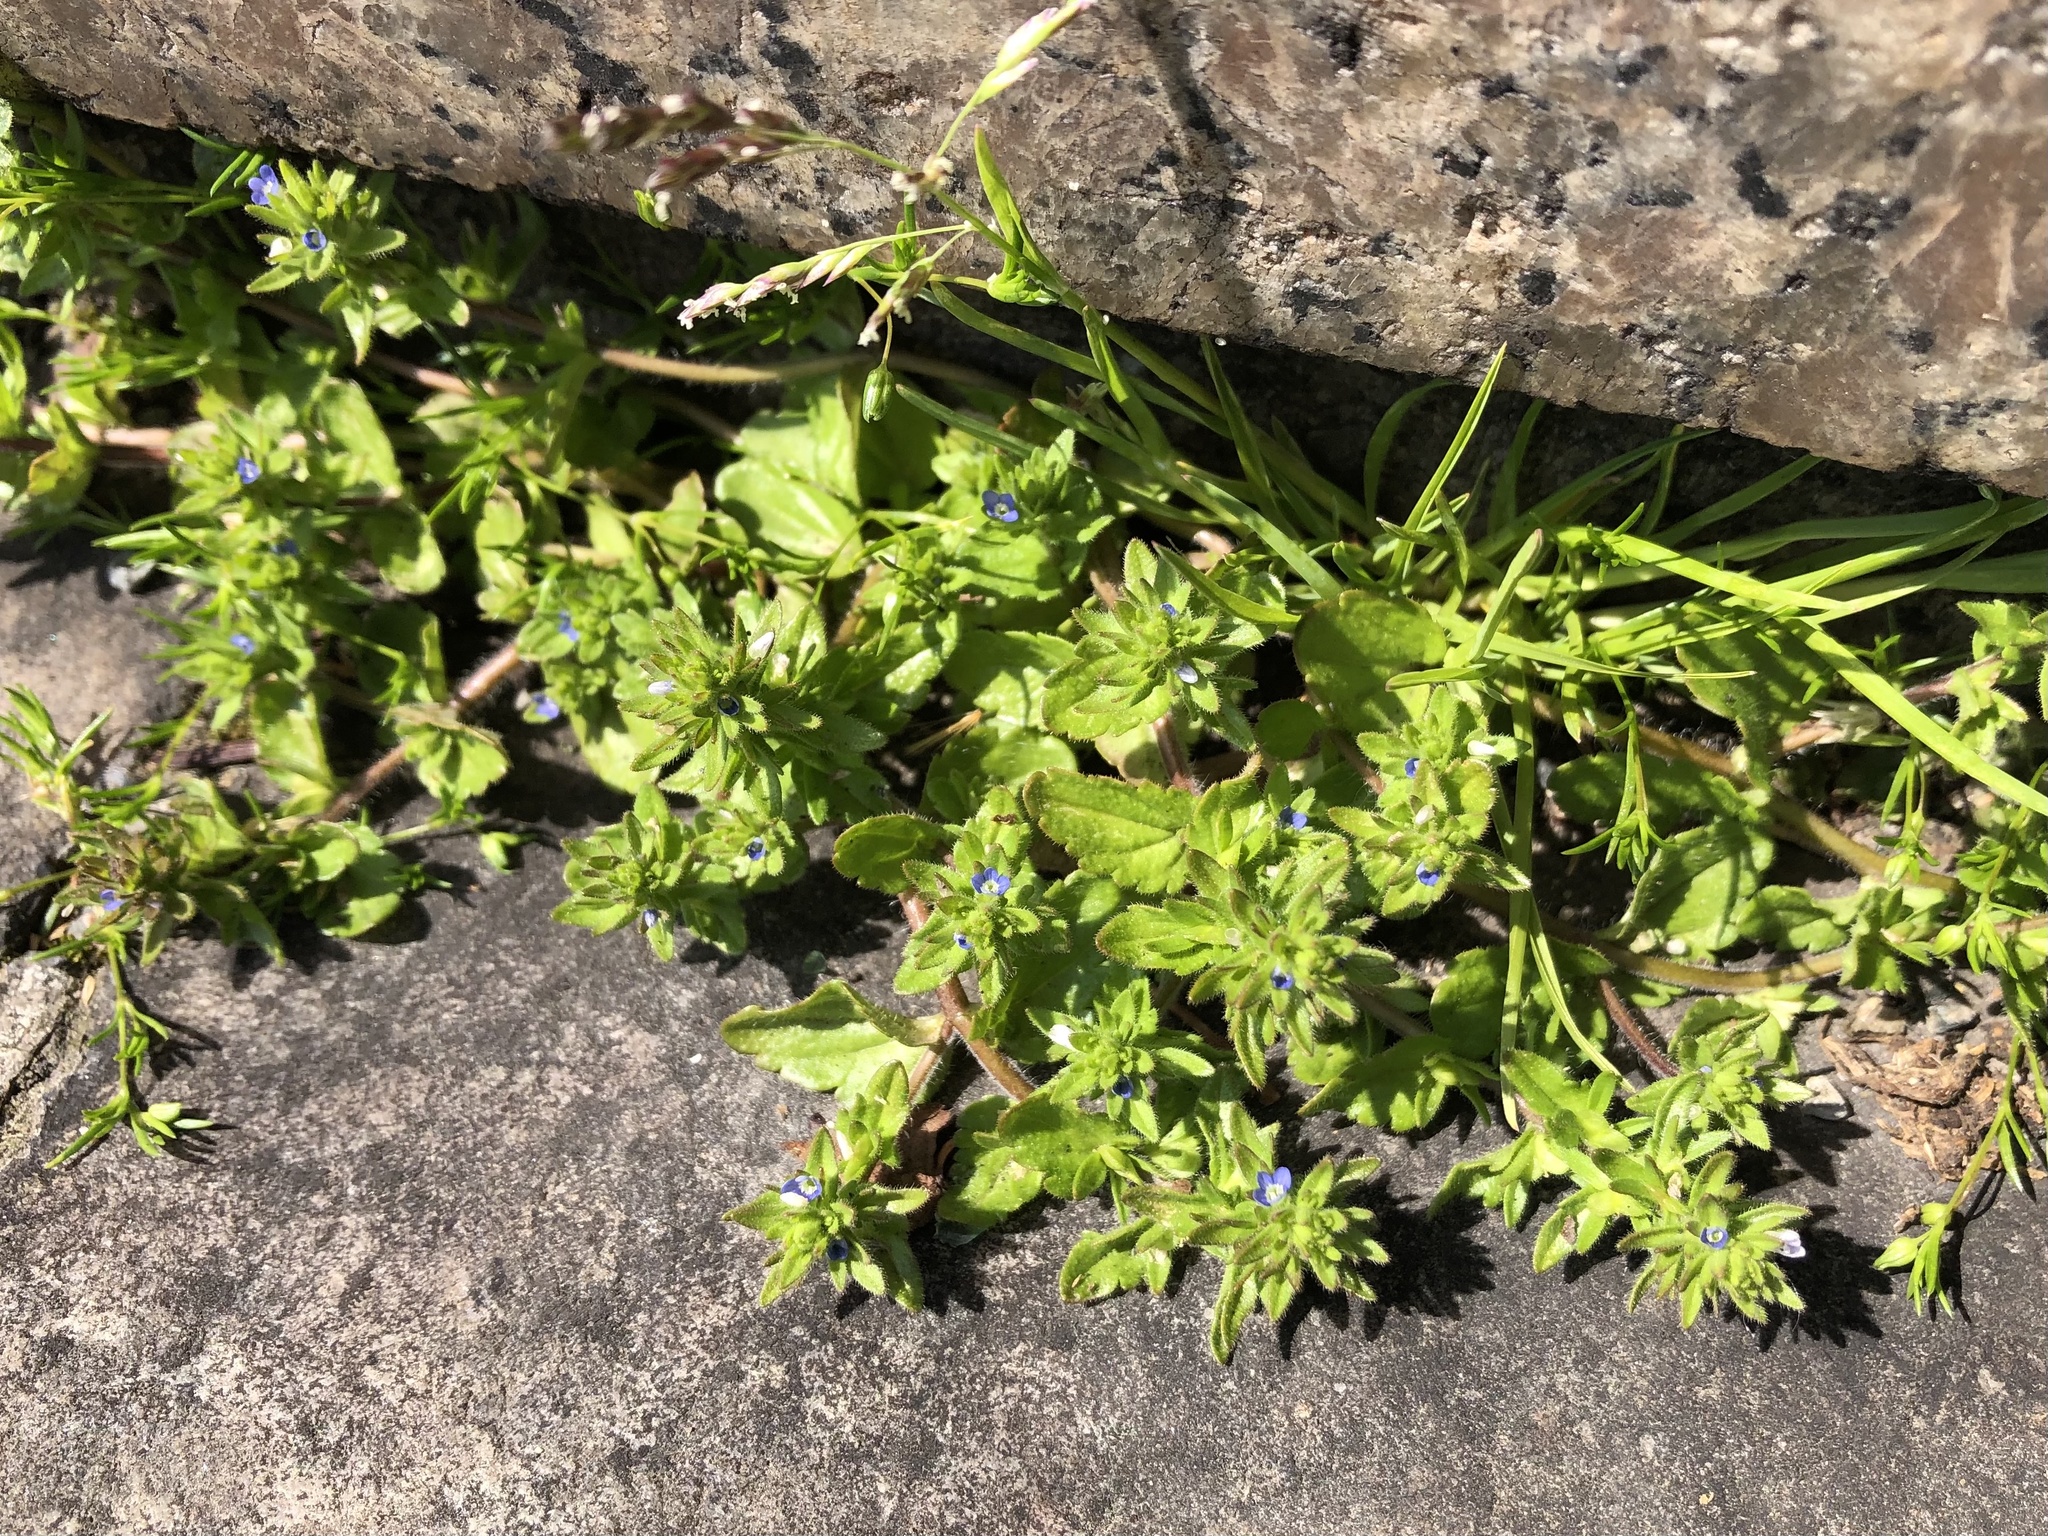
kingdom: Plantae
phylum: Tracheophyta
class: Magnoliopsida
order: Lamiales
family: Plantaginaceae
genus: Veronica
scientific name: Veronica arvensis
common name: Corn speedwell
